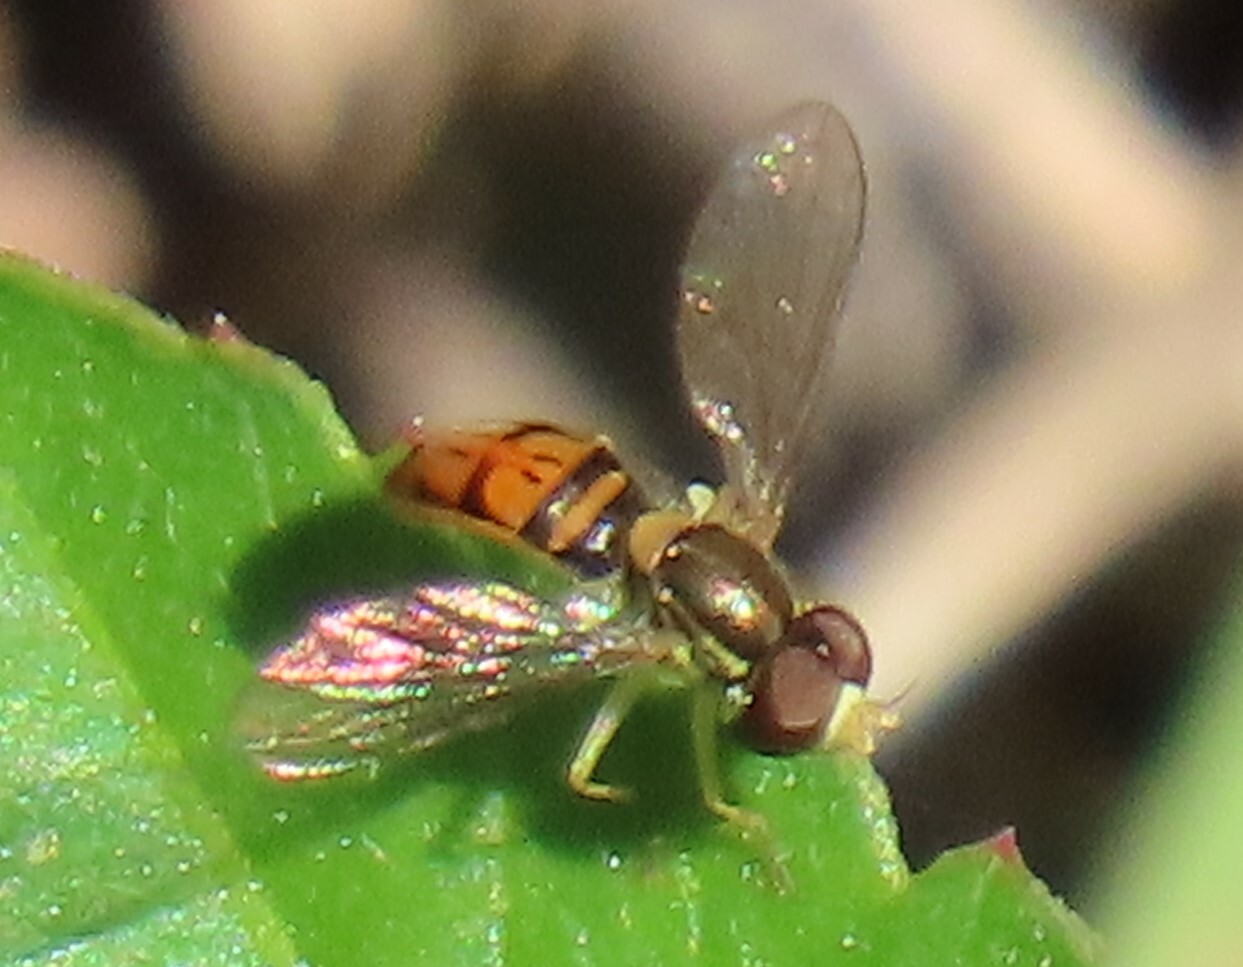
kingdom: Animalia
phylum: Arthropoda
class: Insecta
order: Diptera
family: Syrphidae
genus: Toxomerus
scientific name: Toxomerus marginatus
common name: Syrphid fly
